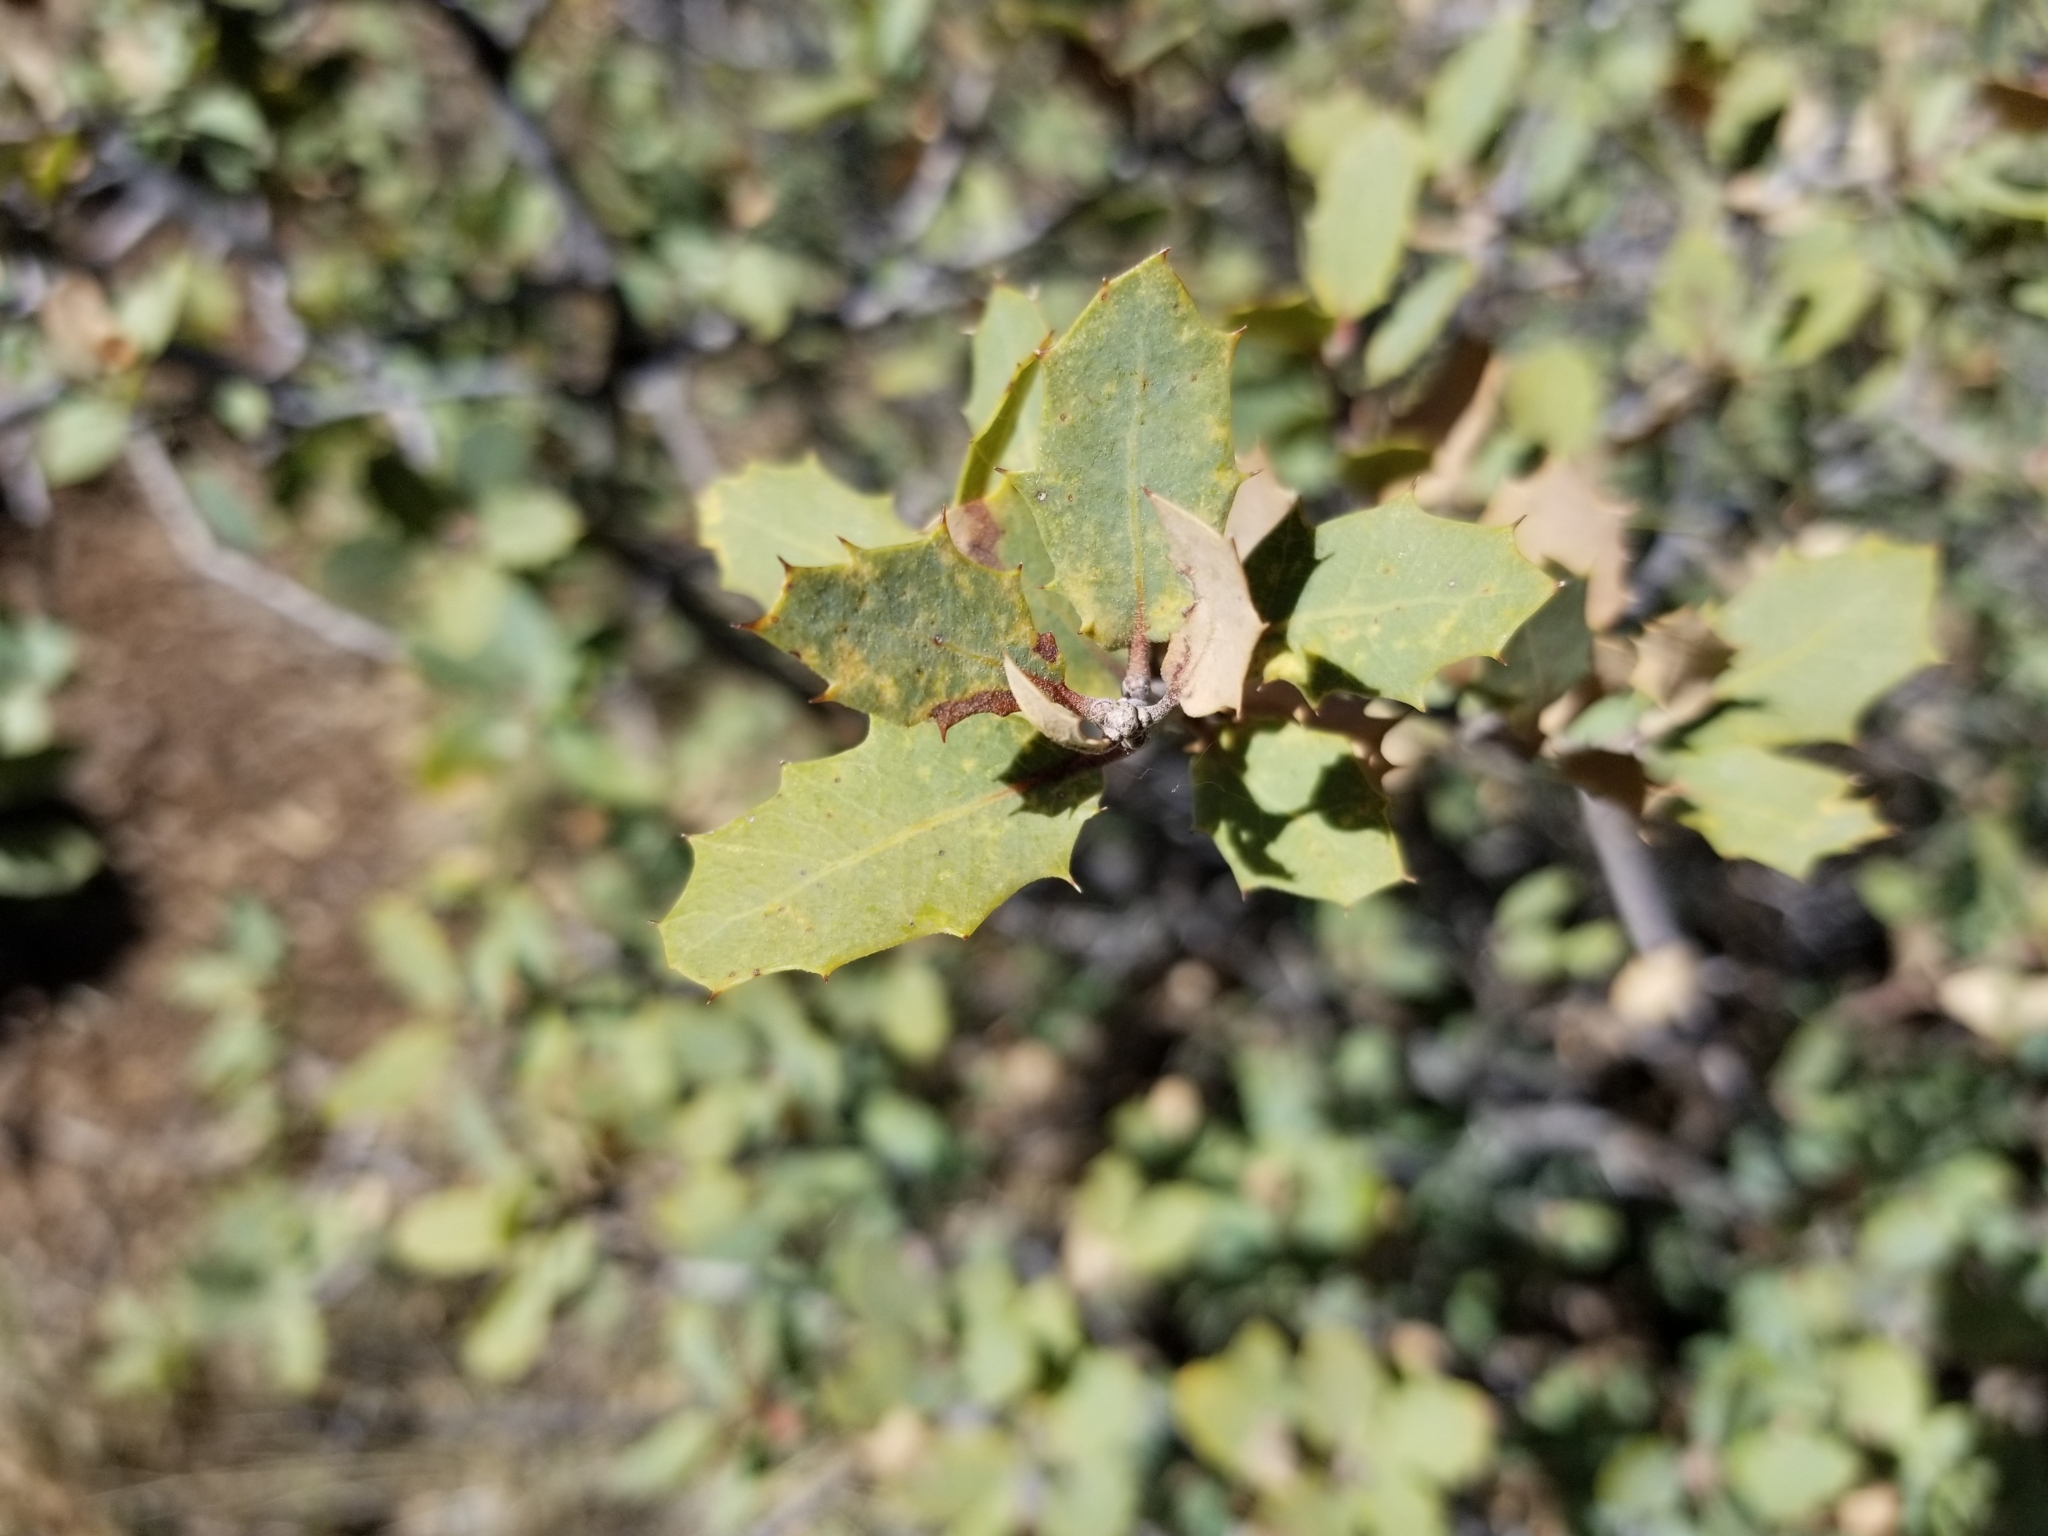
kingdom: Plantae
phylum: Tracheophyta
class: Magnoliopsida
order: Fagales
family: Fagaceae
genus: Quercus
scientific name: Quercus turbinella
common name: Sonoran scrub oak
